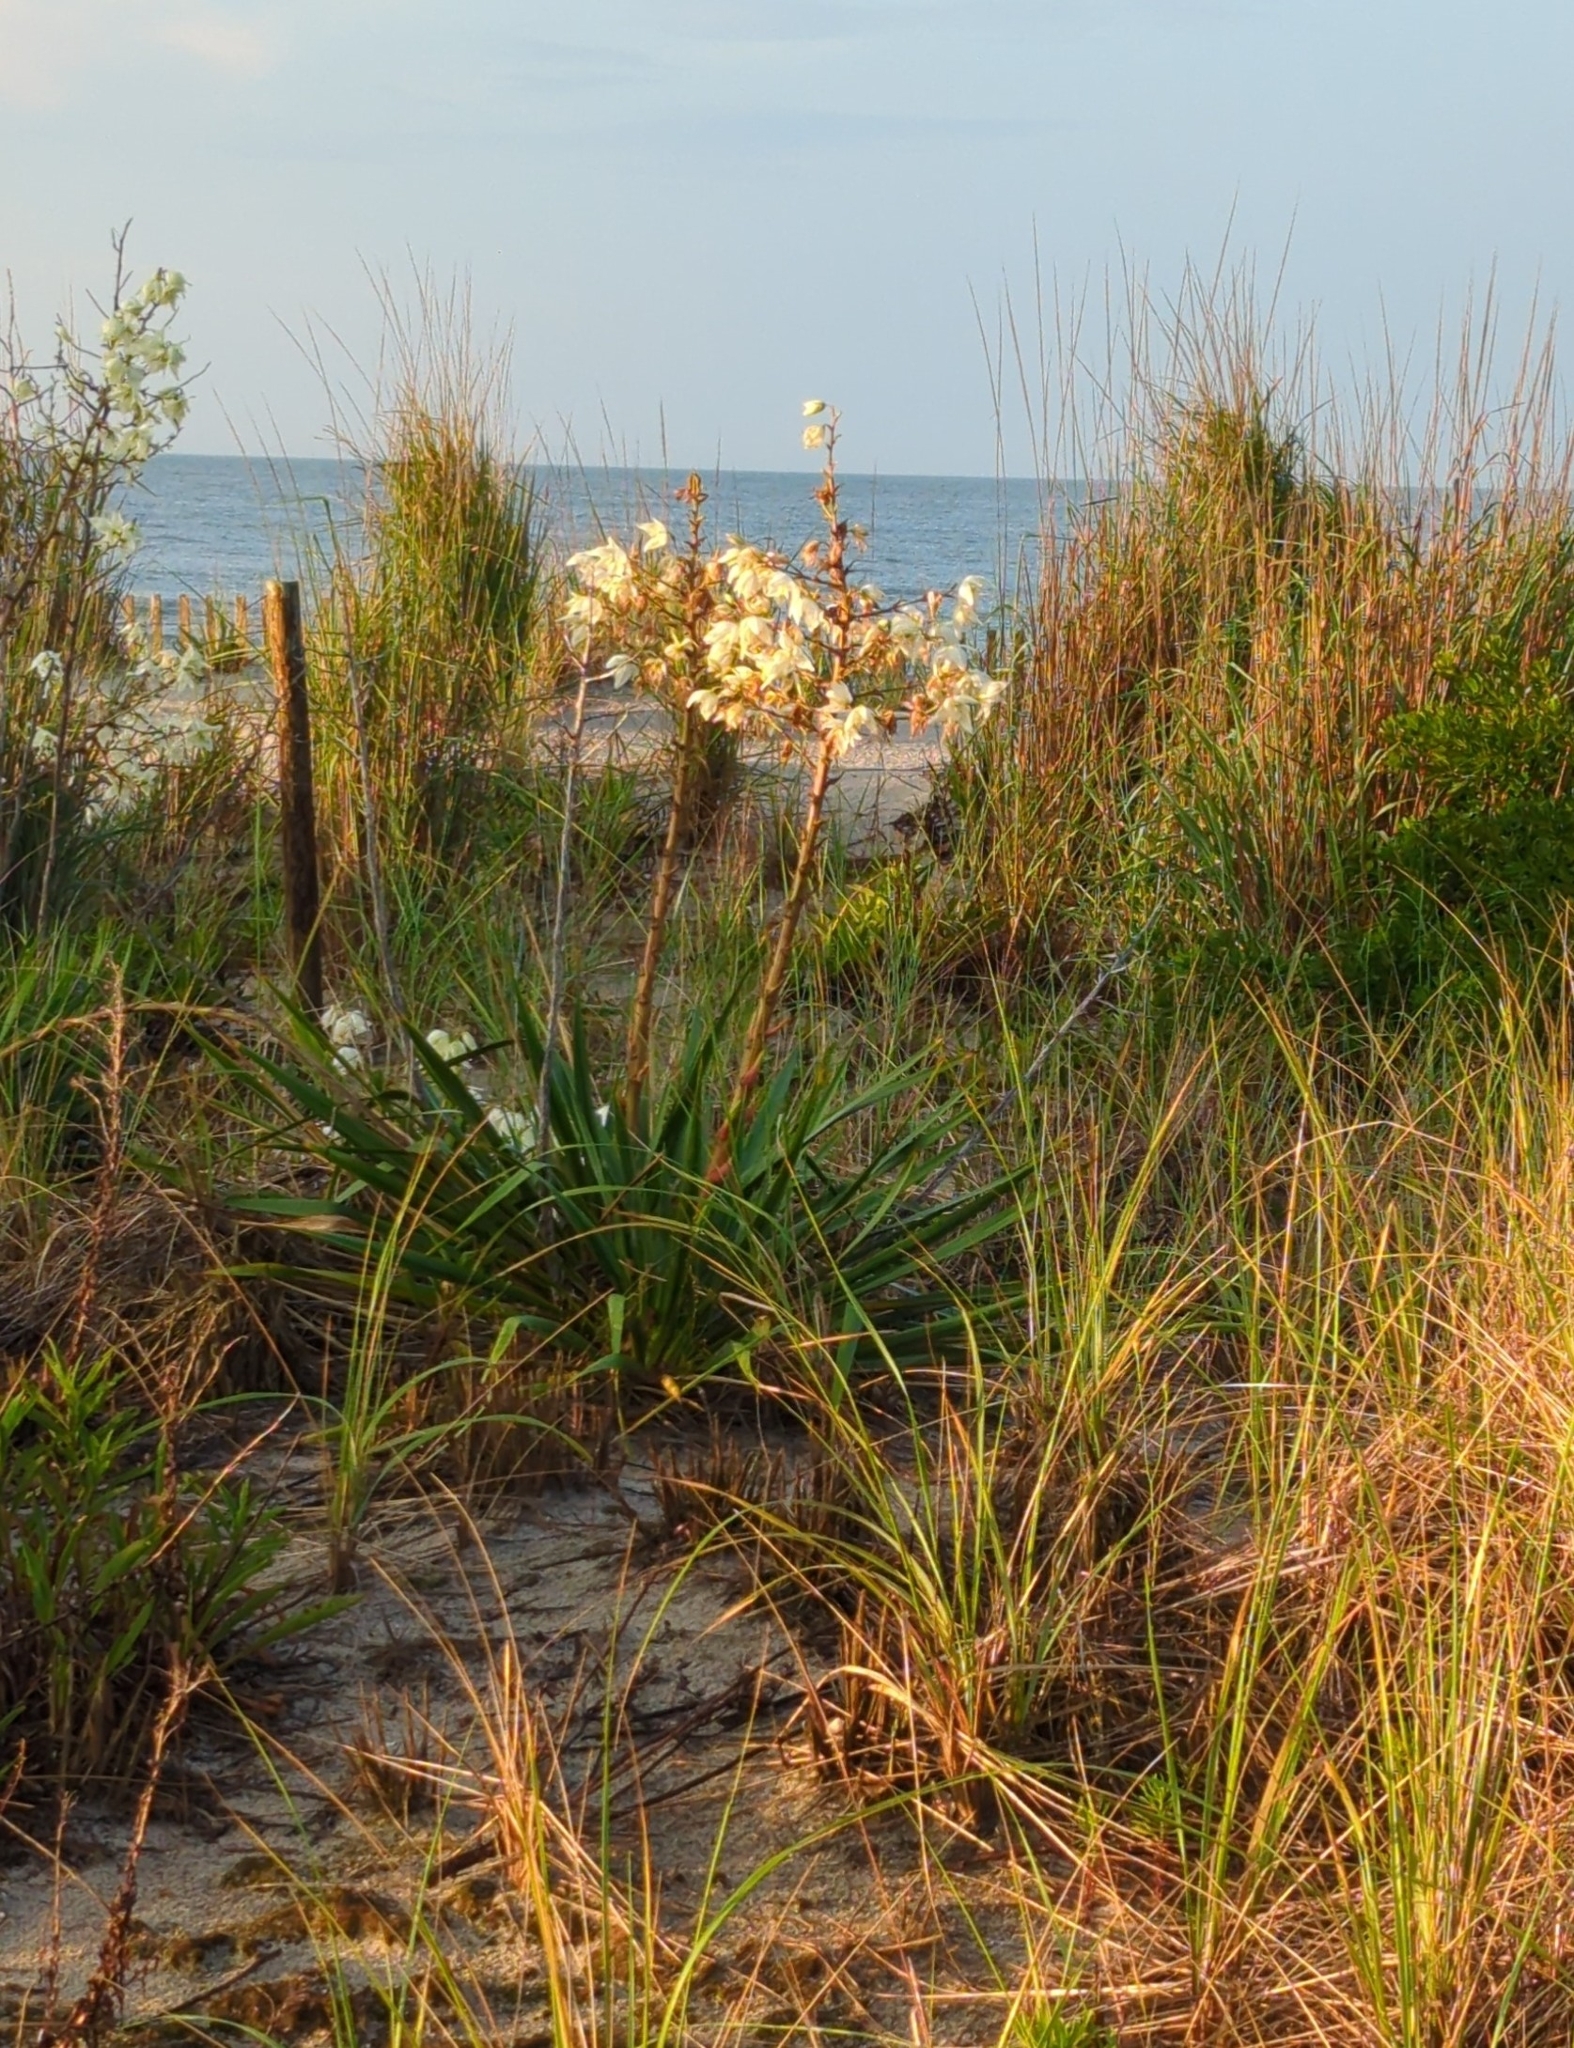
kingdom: Plantae
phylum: Tracheophyta
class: Liliopsida
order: Asparagales
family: Asparagaceae
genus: Yucca
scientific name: Yucca filamentosa
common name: Adam's-needle
